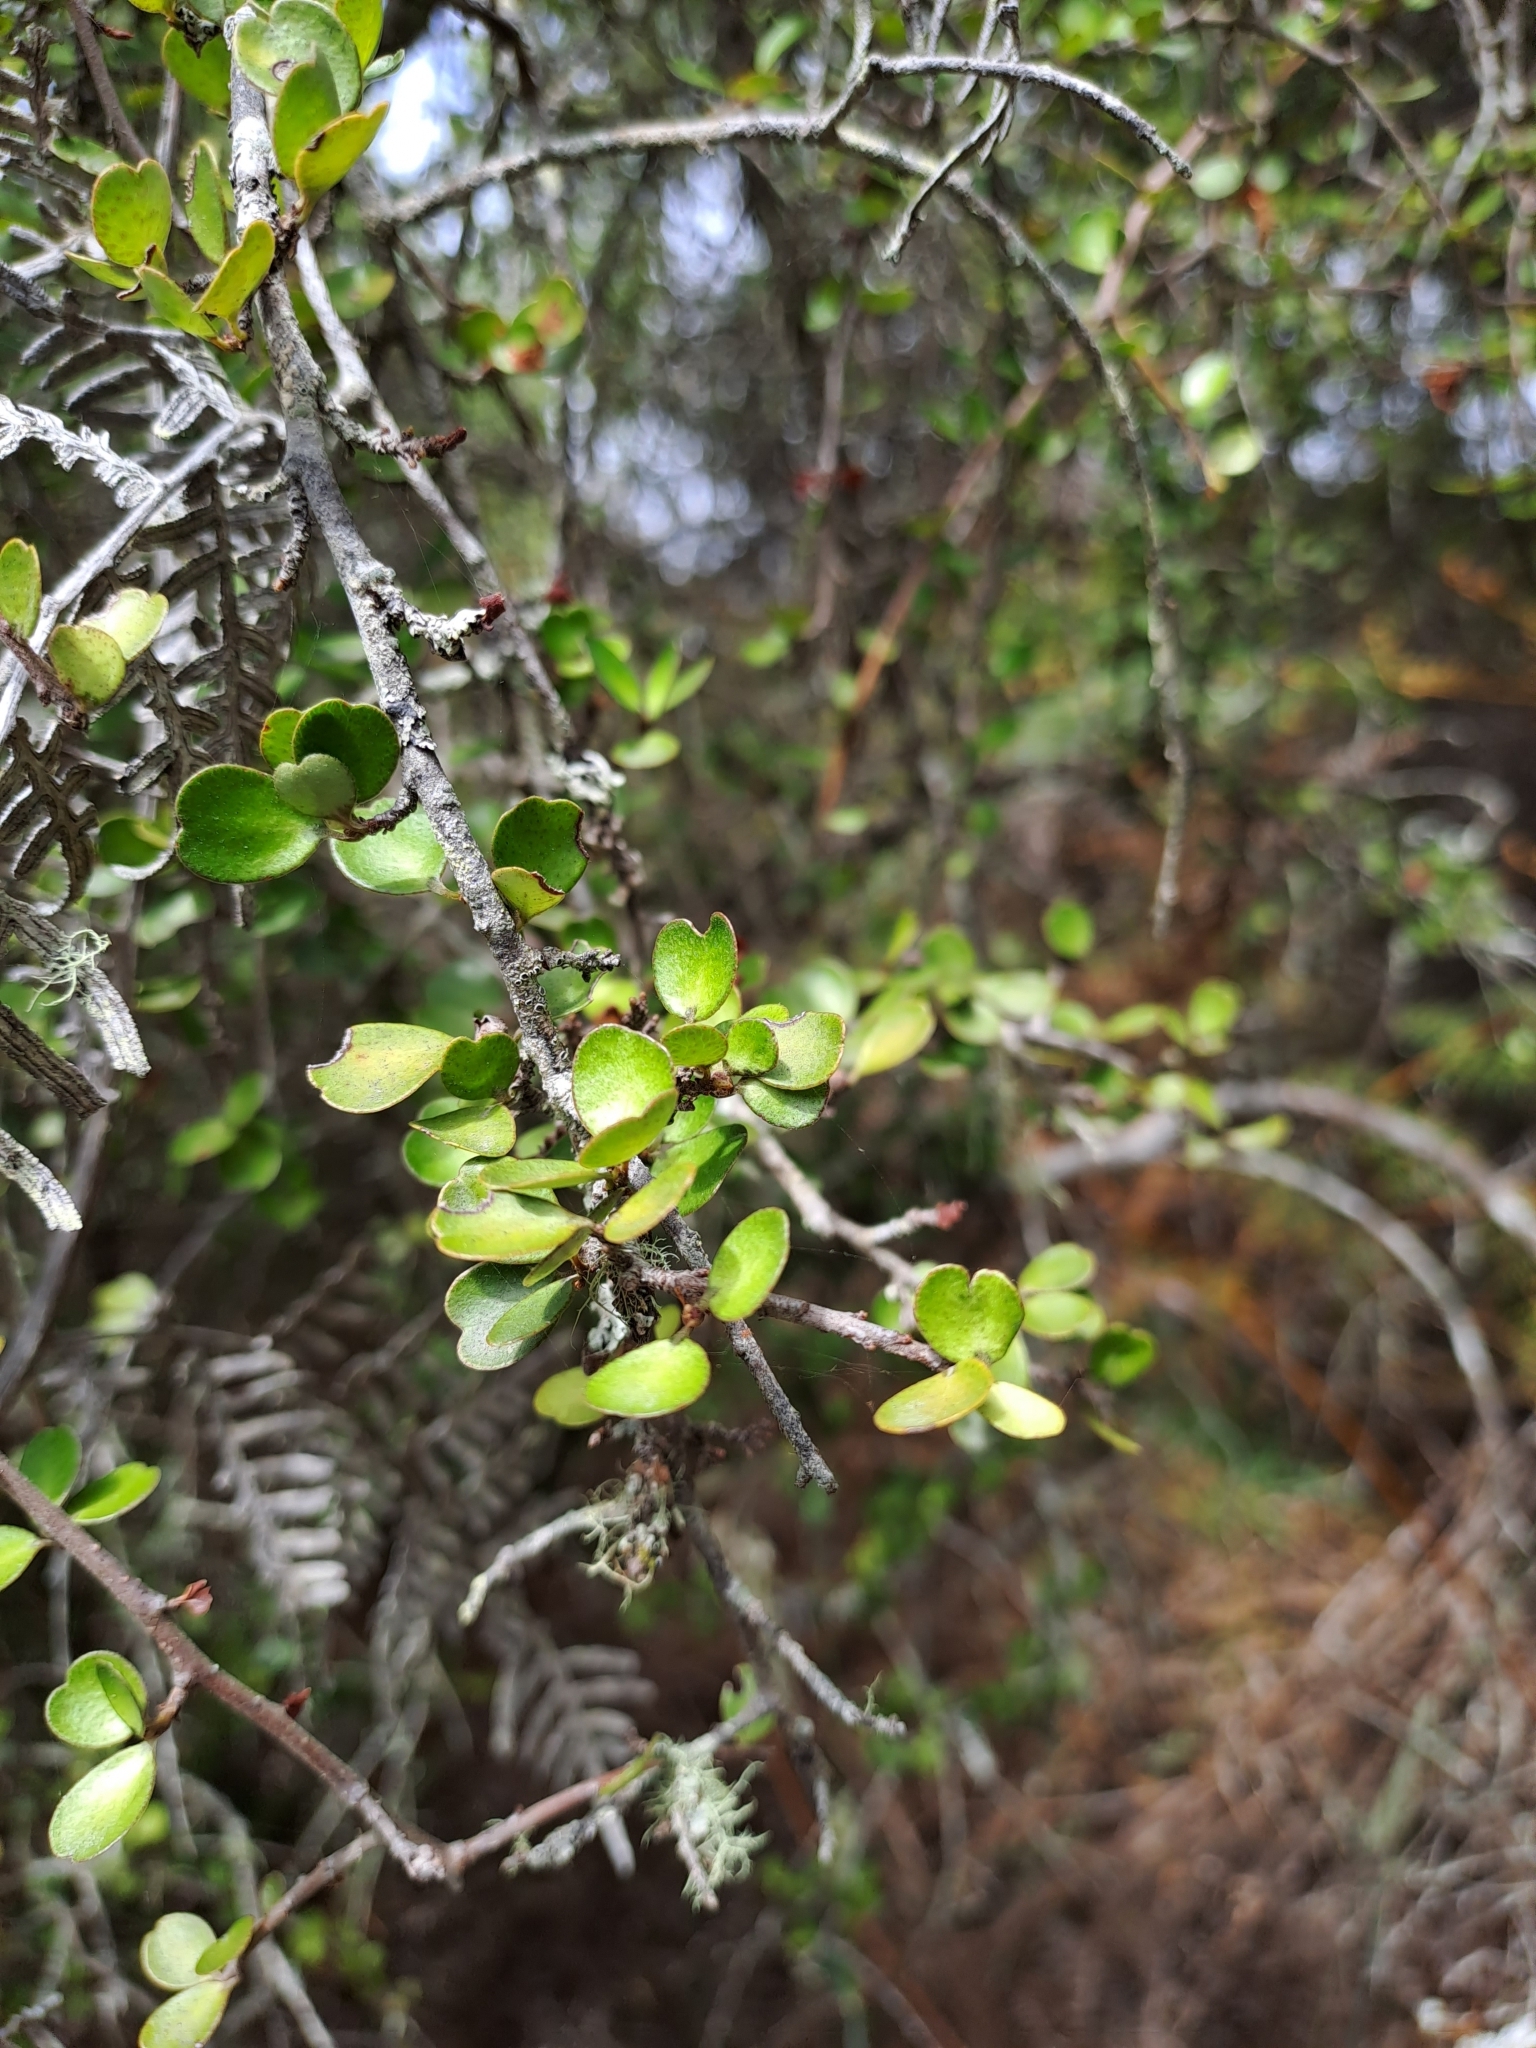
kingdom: Plantae
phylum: Tracheophyta
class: Magnoliopsida
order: Ericales
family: Primulaceae
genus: Myrsine
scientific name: Myrsine divaricata
